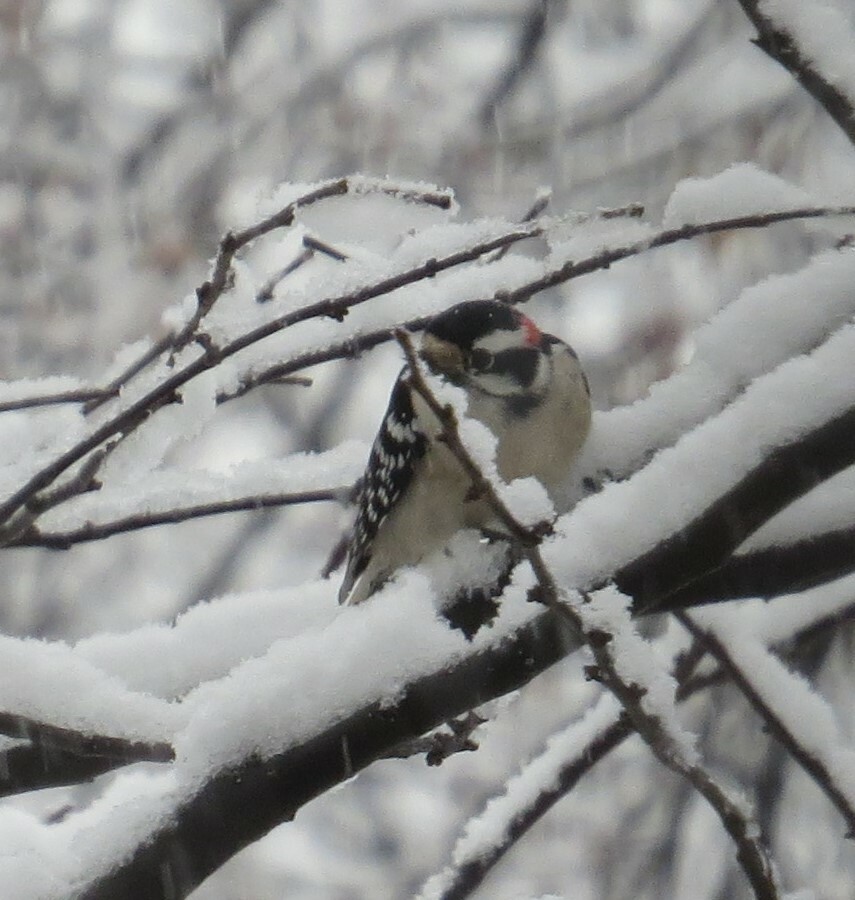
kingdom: Animalia
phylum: Chordata
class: Aves
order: Piciformes
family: Picidae
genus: Dryobates
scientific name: Dryobates pubescens
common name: Downy woodpecker
